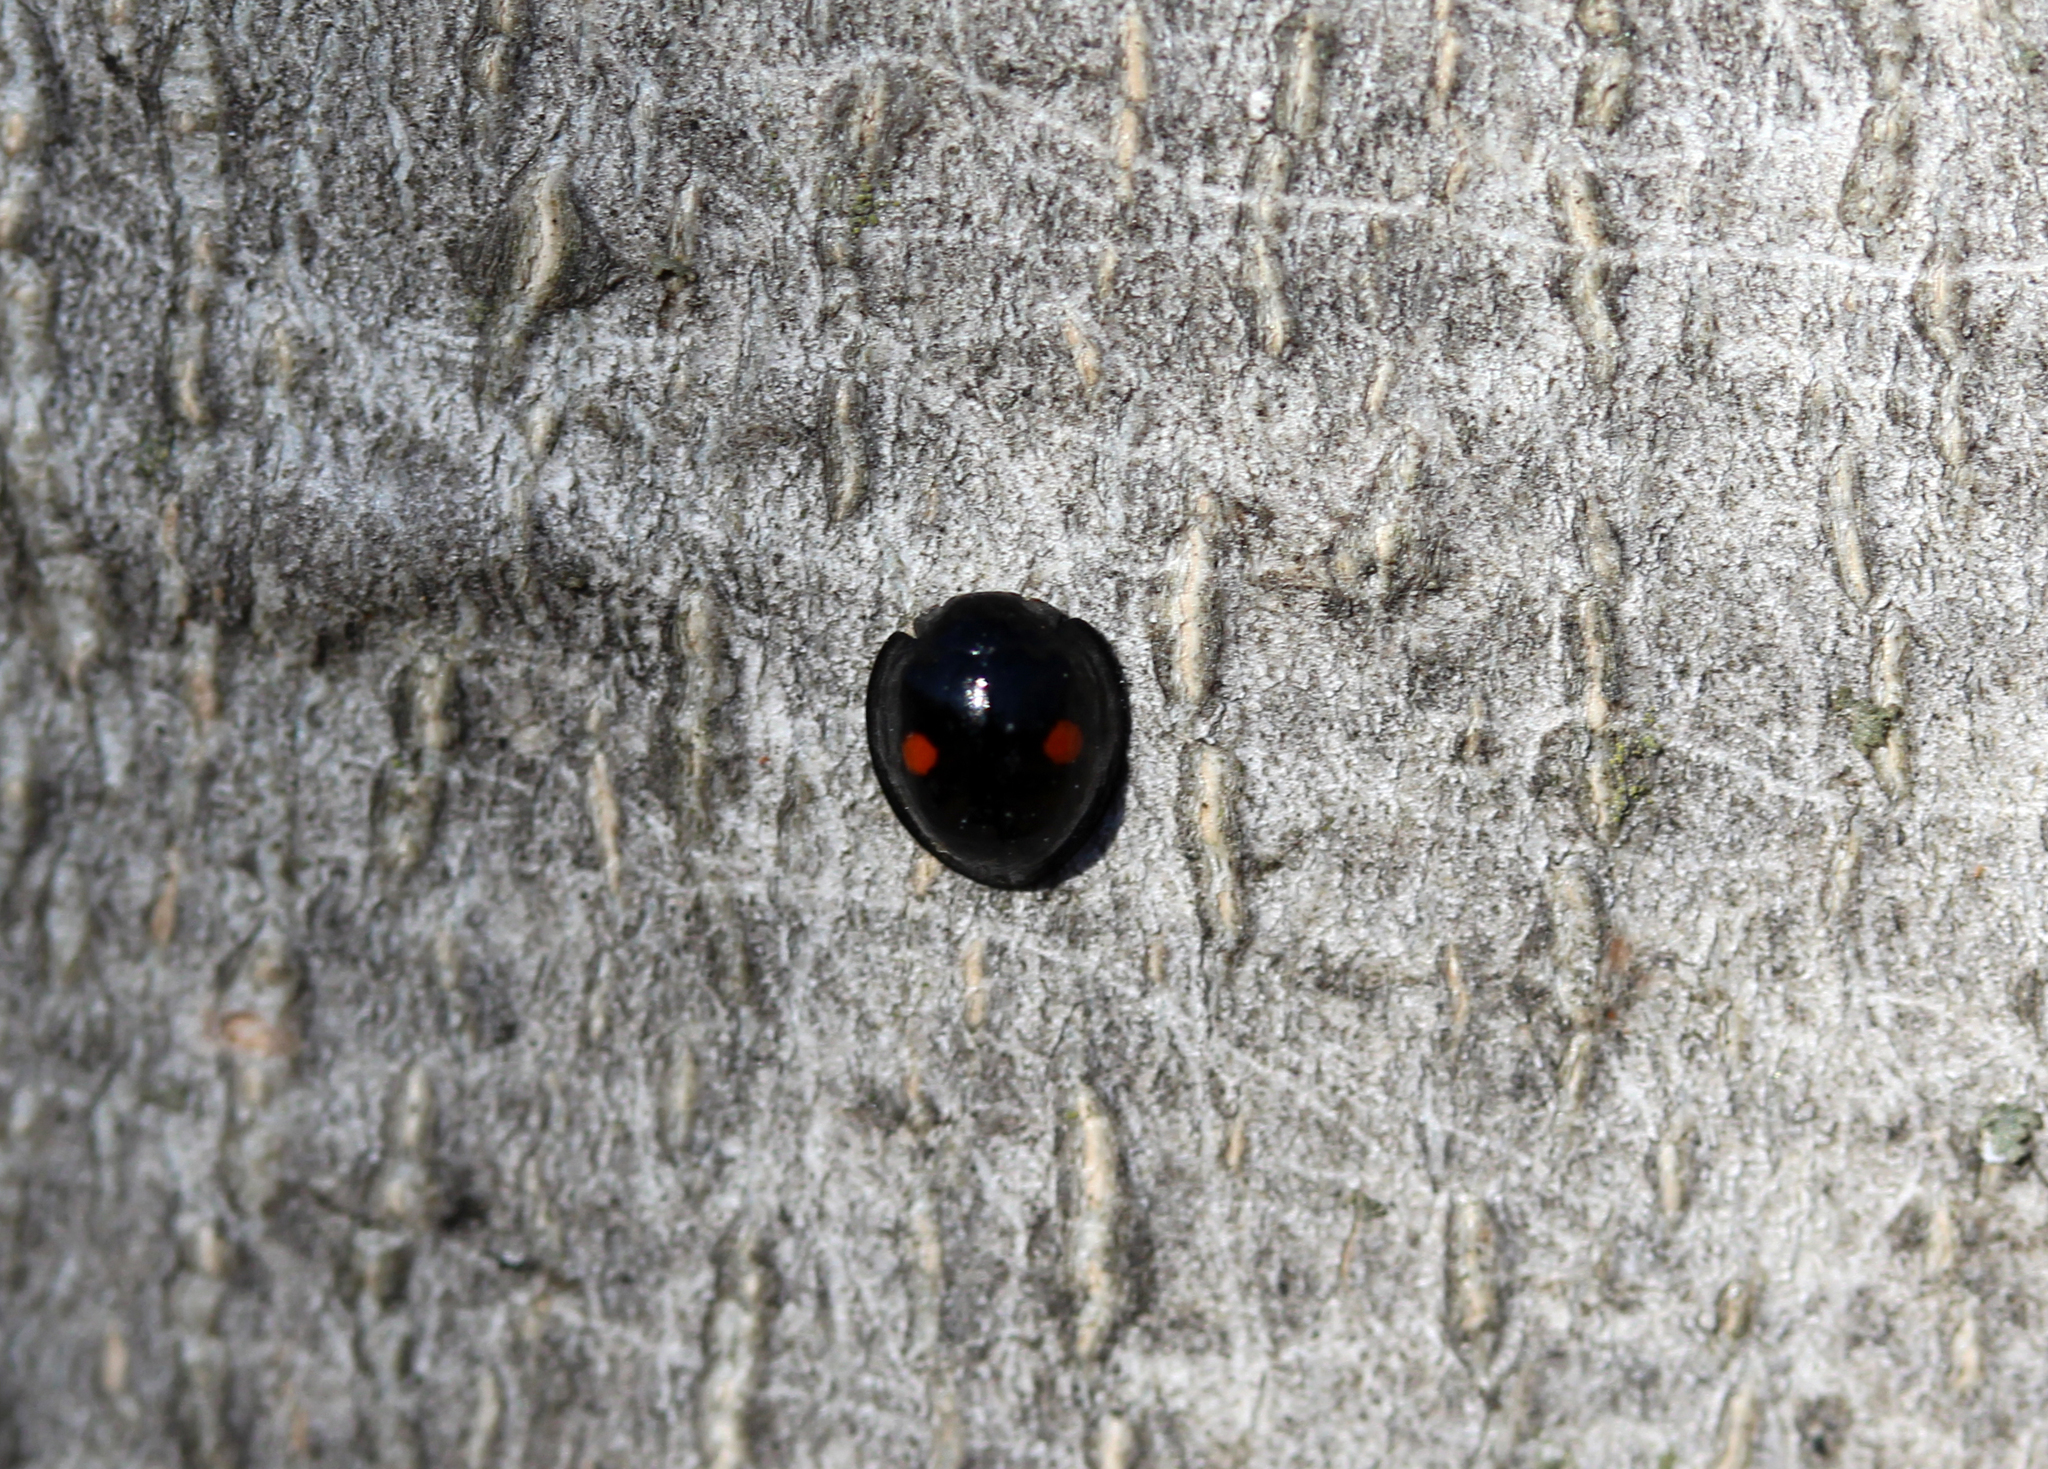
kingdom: Animalia
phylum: Arthropoda
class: Insecta
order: Coleoptera
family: Coccinellidae
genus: Chilocorus
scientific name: Chilocorus stigma
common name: Twicestabbed lady beetle
